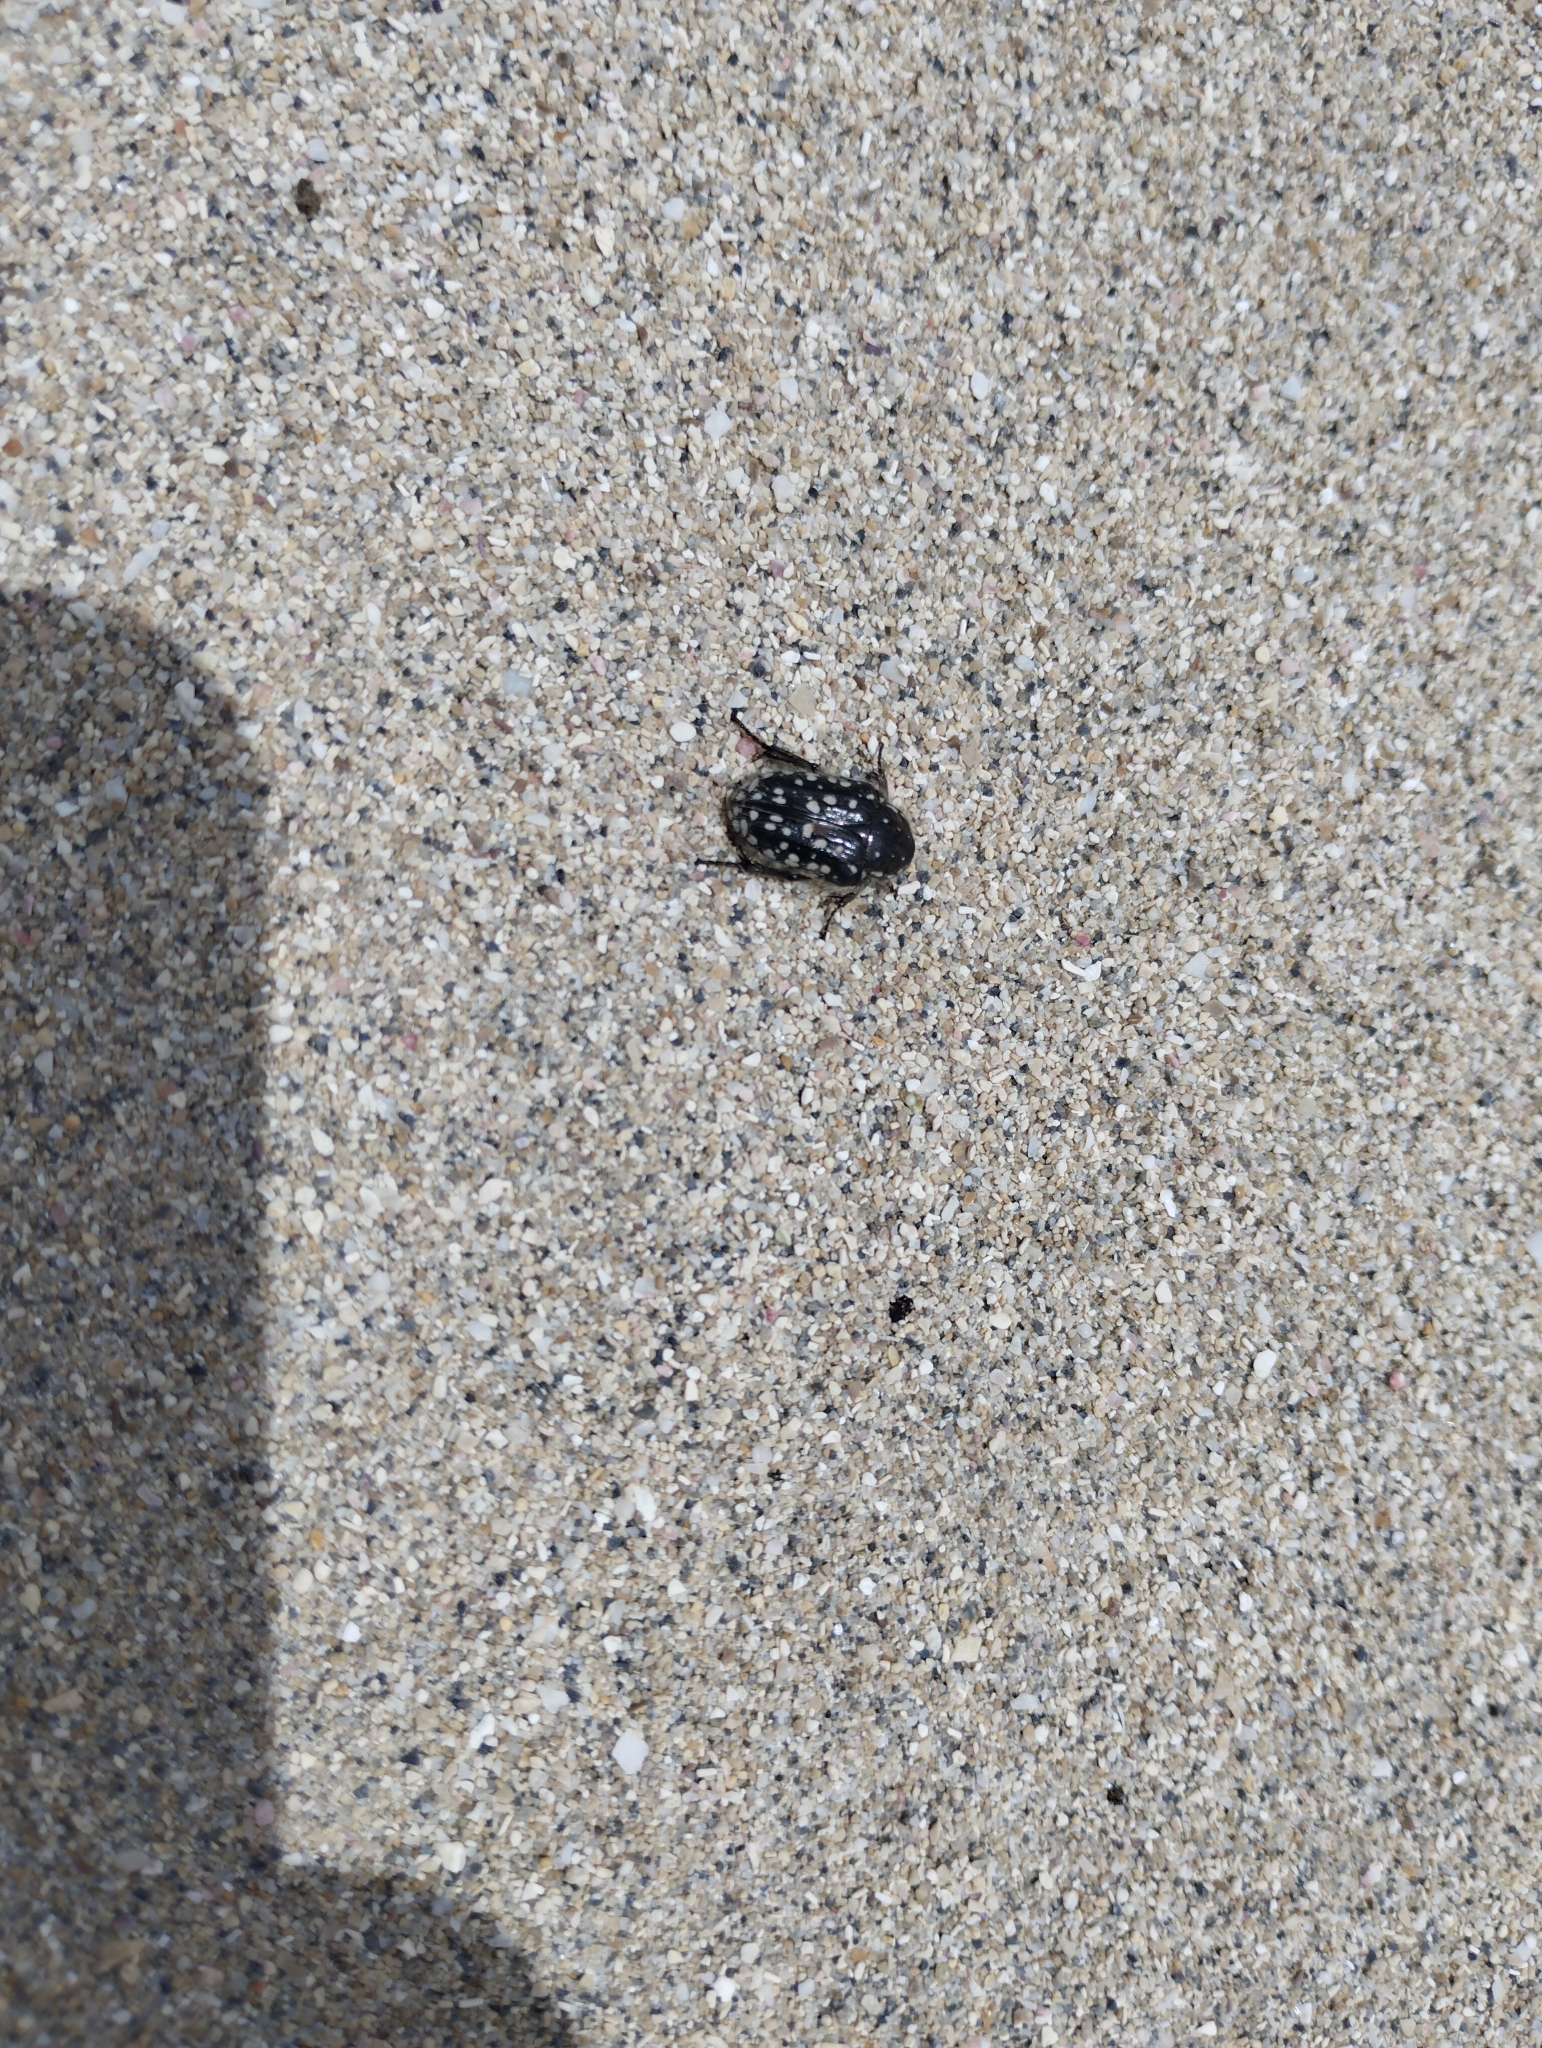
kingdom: Animalia
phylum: Arthropoda
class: Insecta
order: Coleoptera
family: Scarabaeidae
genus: Oxythyrea
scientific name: Oxythyrea cinctella
